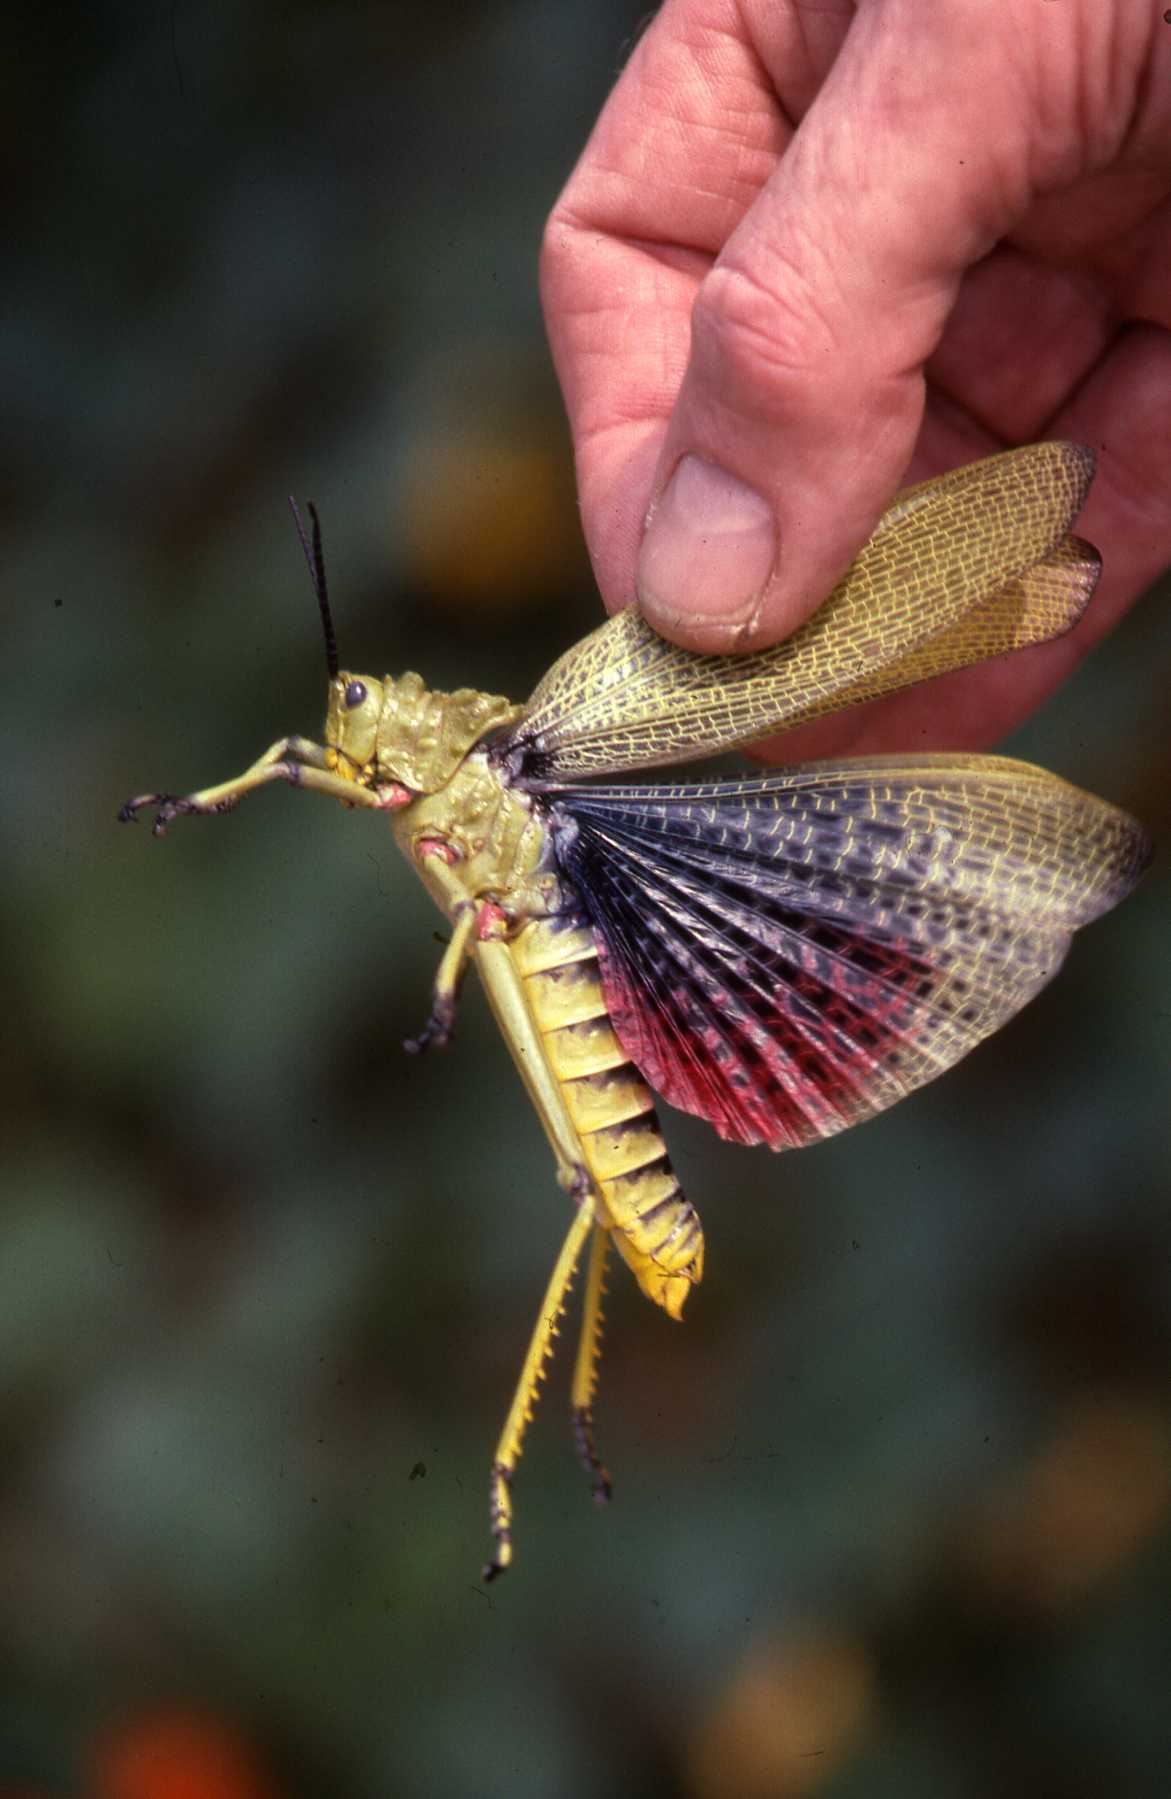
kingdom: Animalia
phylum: Arthropoda
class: Insecta
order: Orthoptera
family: Pyrgomorphidae
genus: Phymateus
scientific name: Phymateus viridipes
